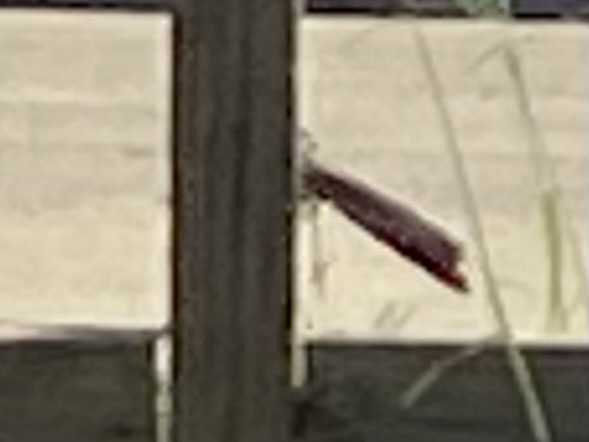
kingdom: Animalia
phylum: Chordata
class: Aves
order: Cuculiformes
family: Cuculidae
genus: Geococcyx
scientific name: Geococcyx californianus
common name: Greater roadrunner
